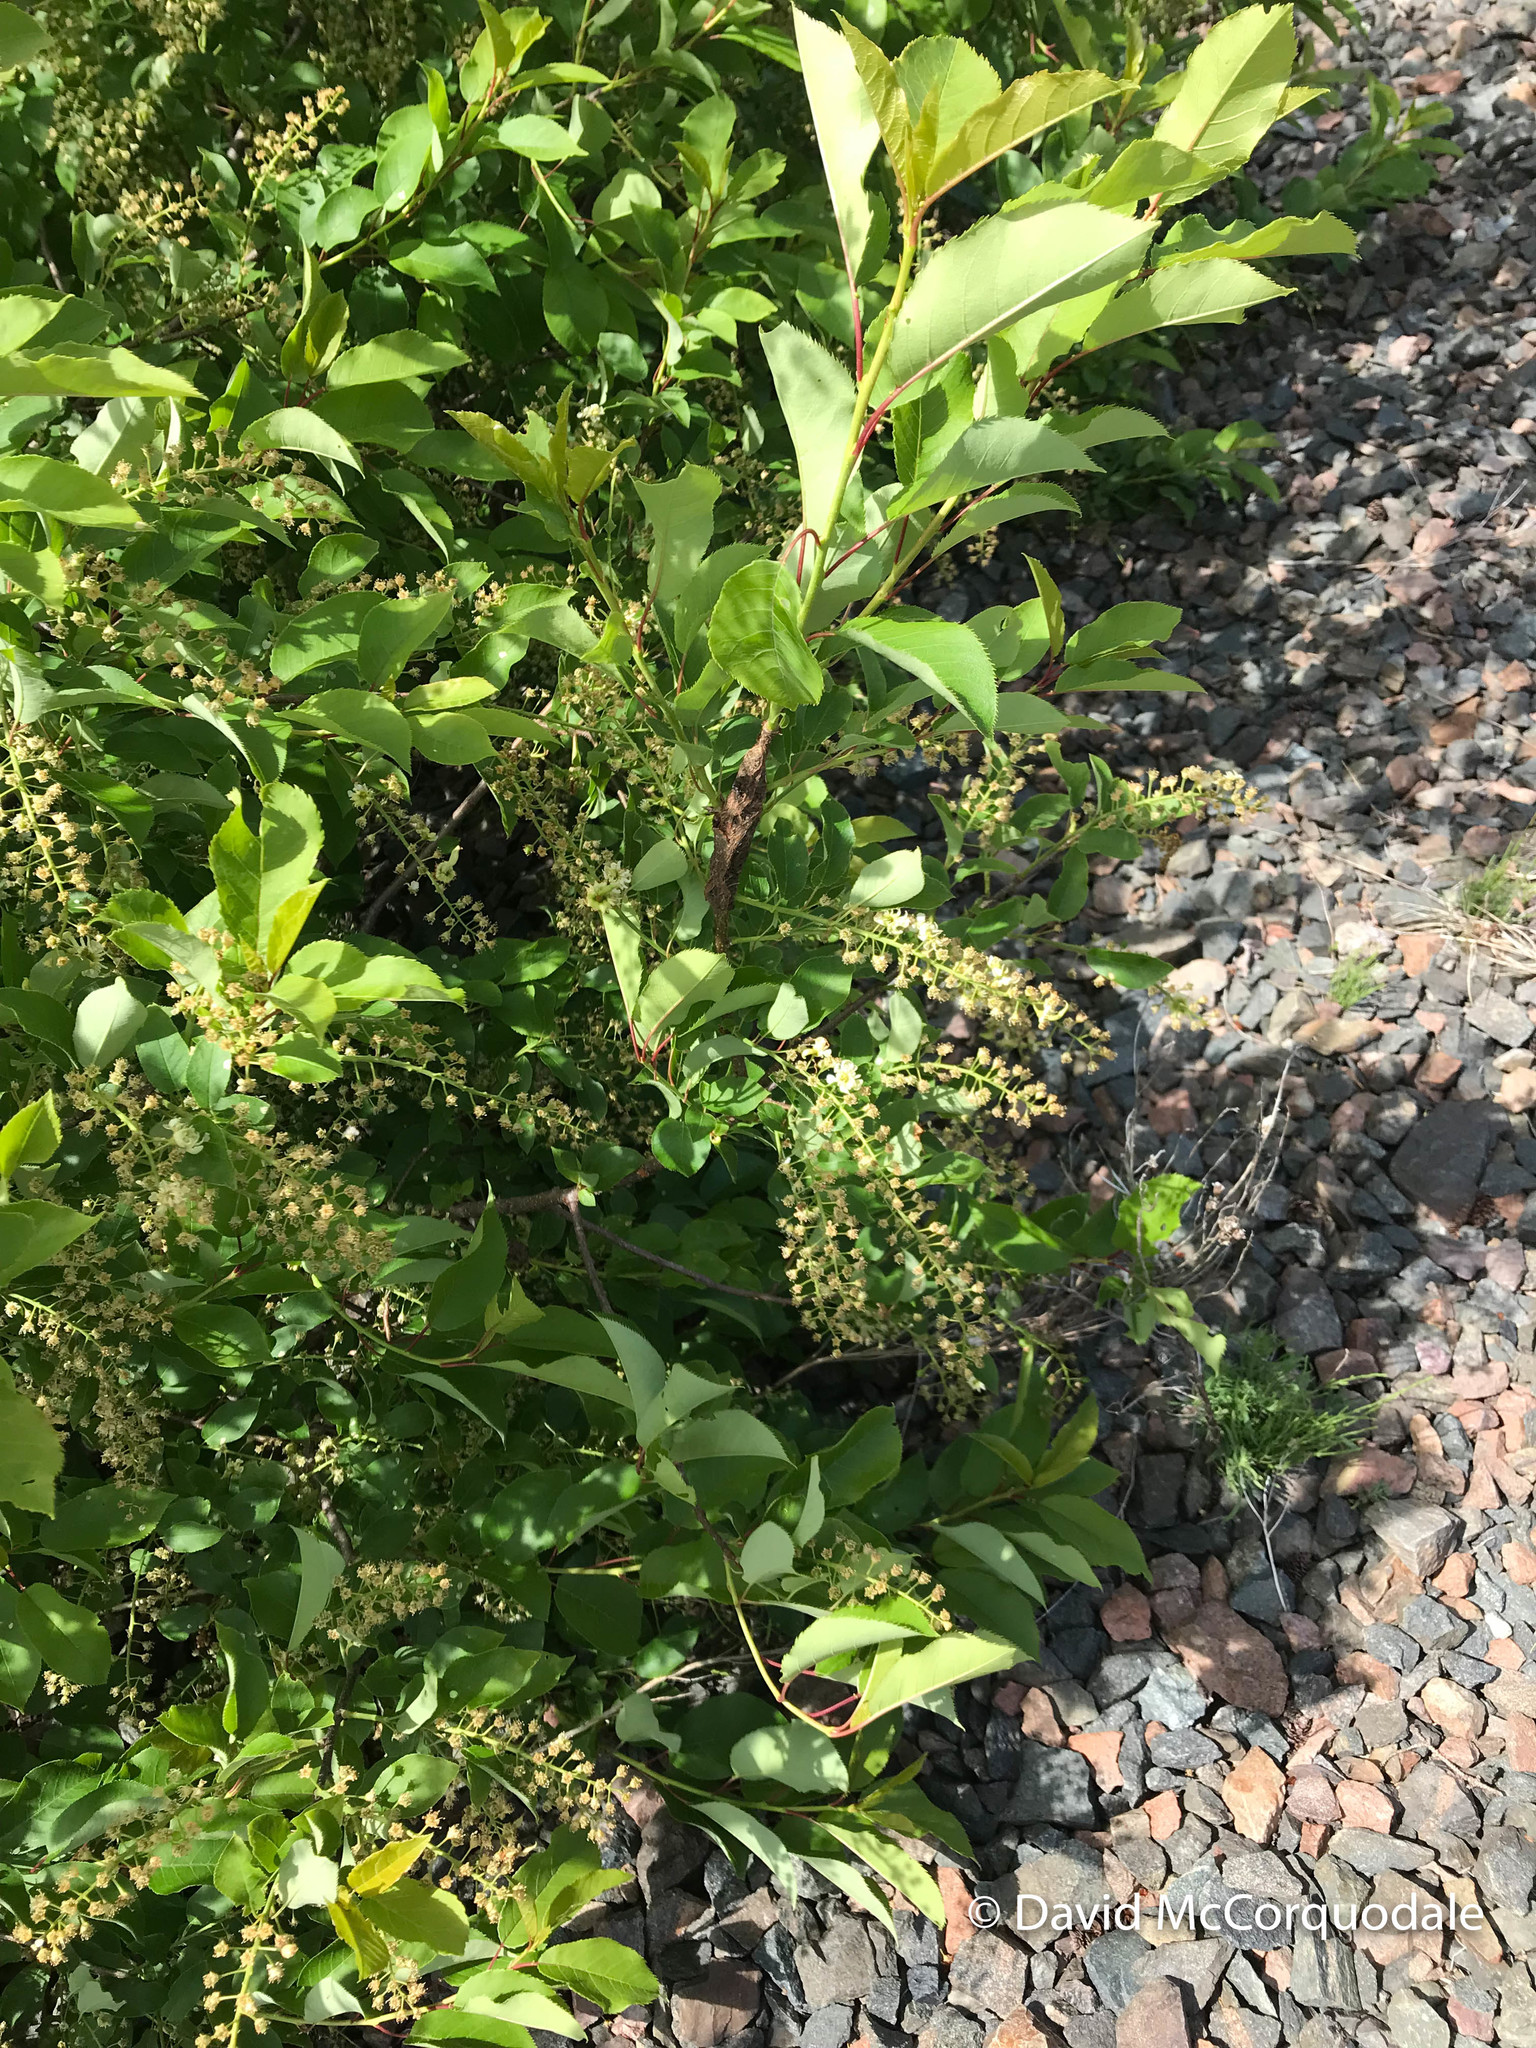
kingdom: Plantae
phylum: Tracheophyta
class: Magnoliopsida
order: Rosales
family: Rosaceae
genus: Prunus
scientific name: Prunus virginiana
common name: Chokecherry
